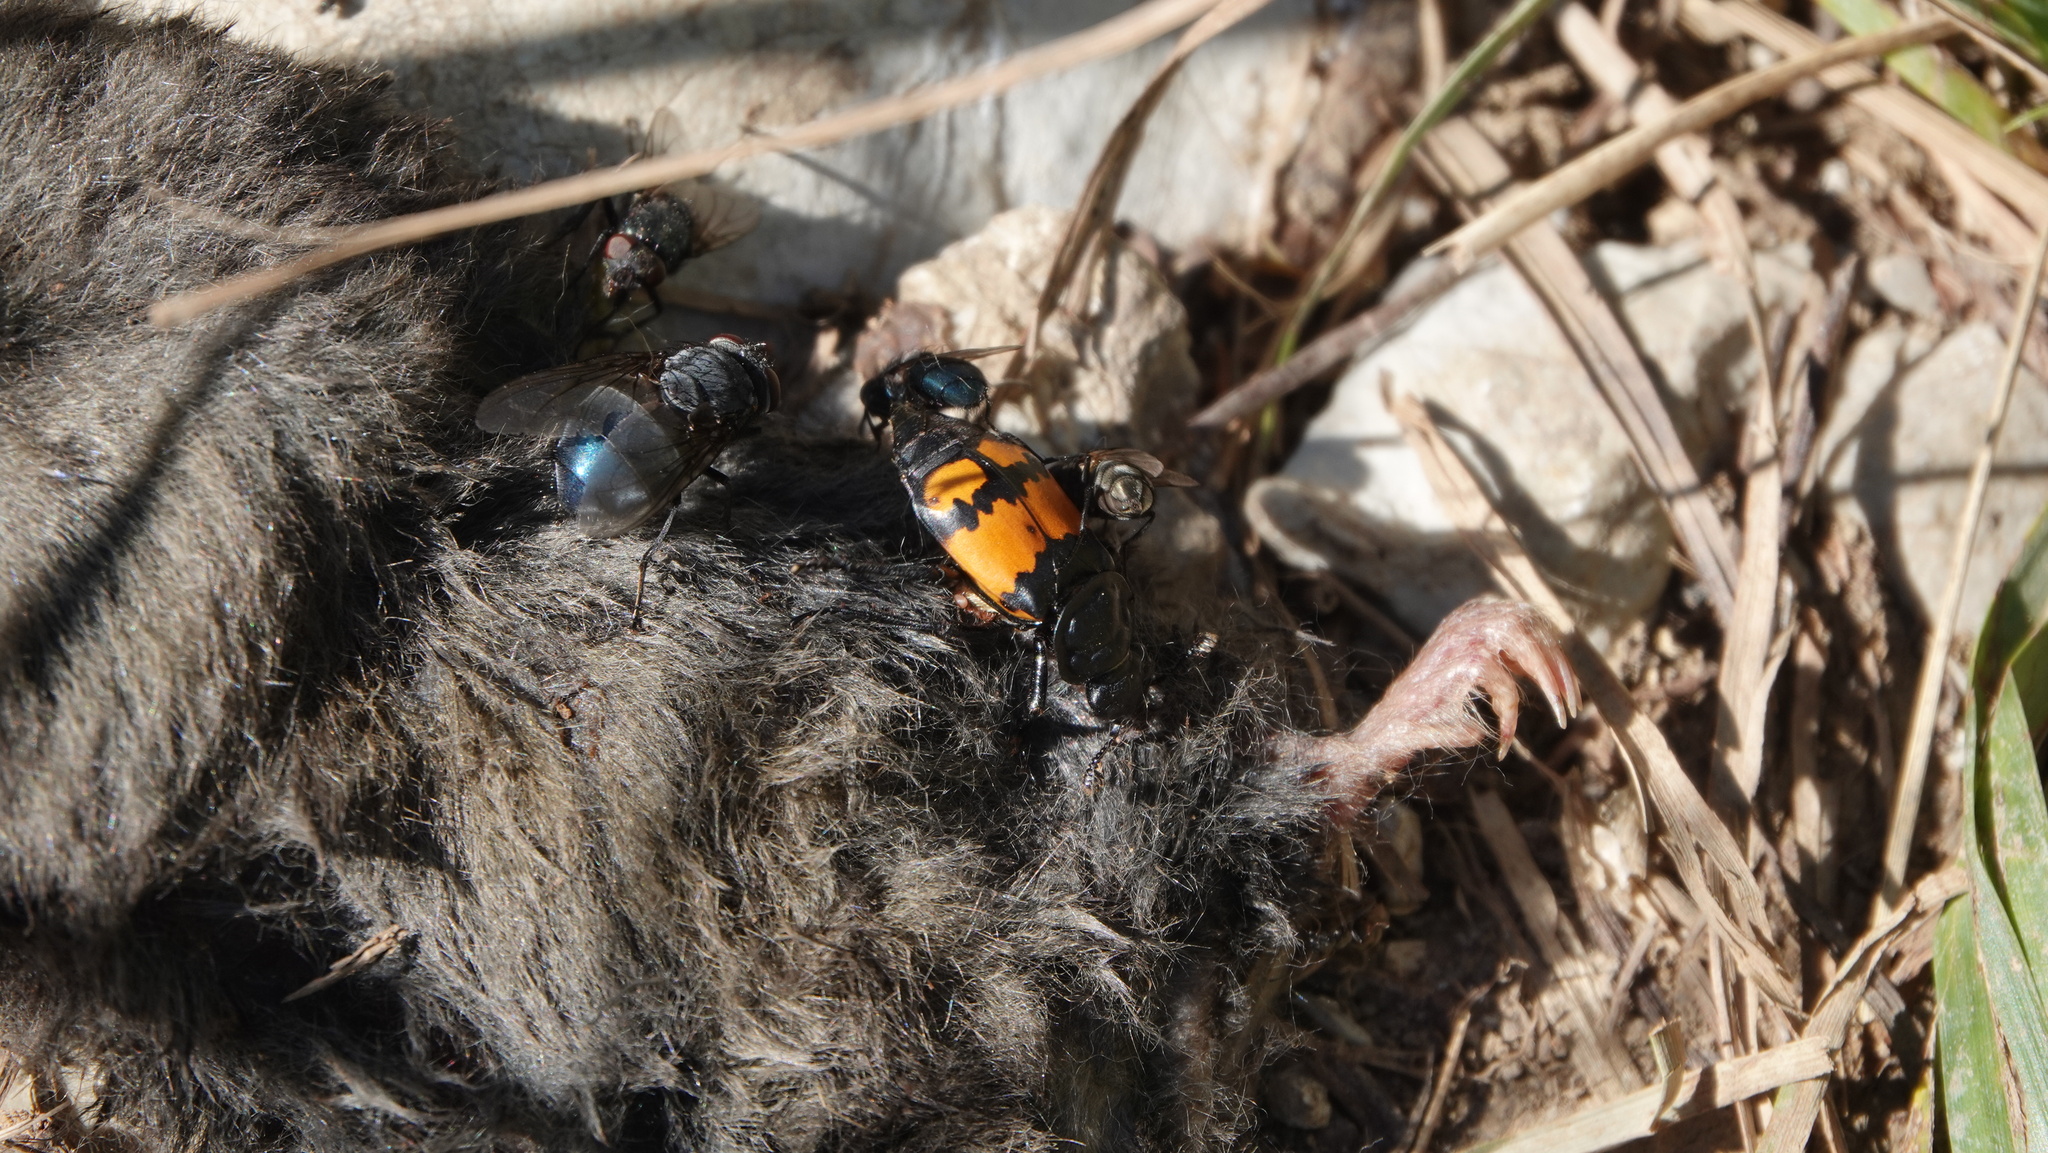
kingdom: Animalia
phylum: Arthropoda
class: Insecta
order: Coleoptera
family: Staphylinidae
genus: Nicrophorus
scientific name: Nicrophorus vespilloides
